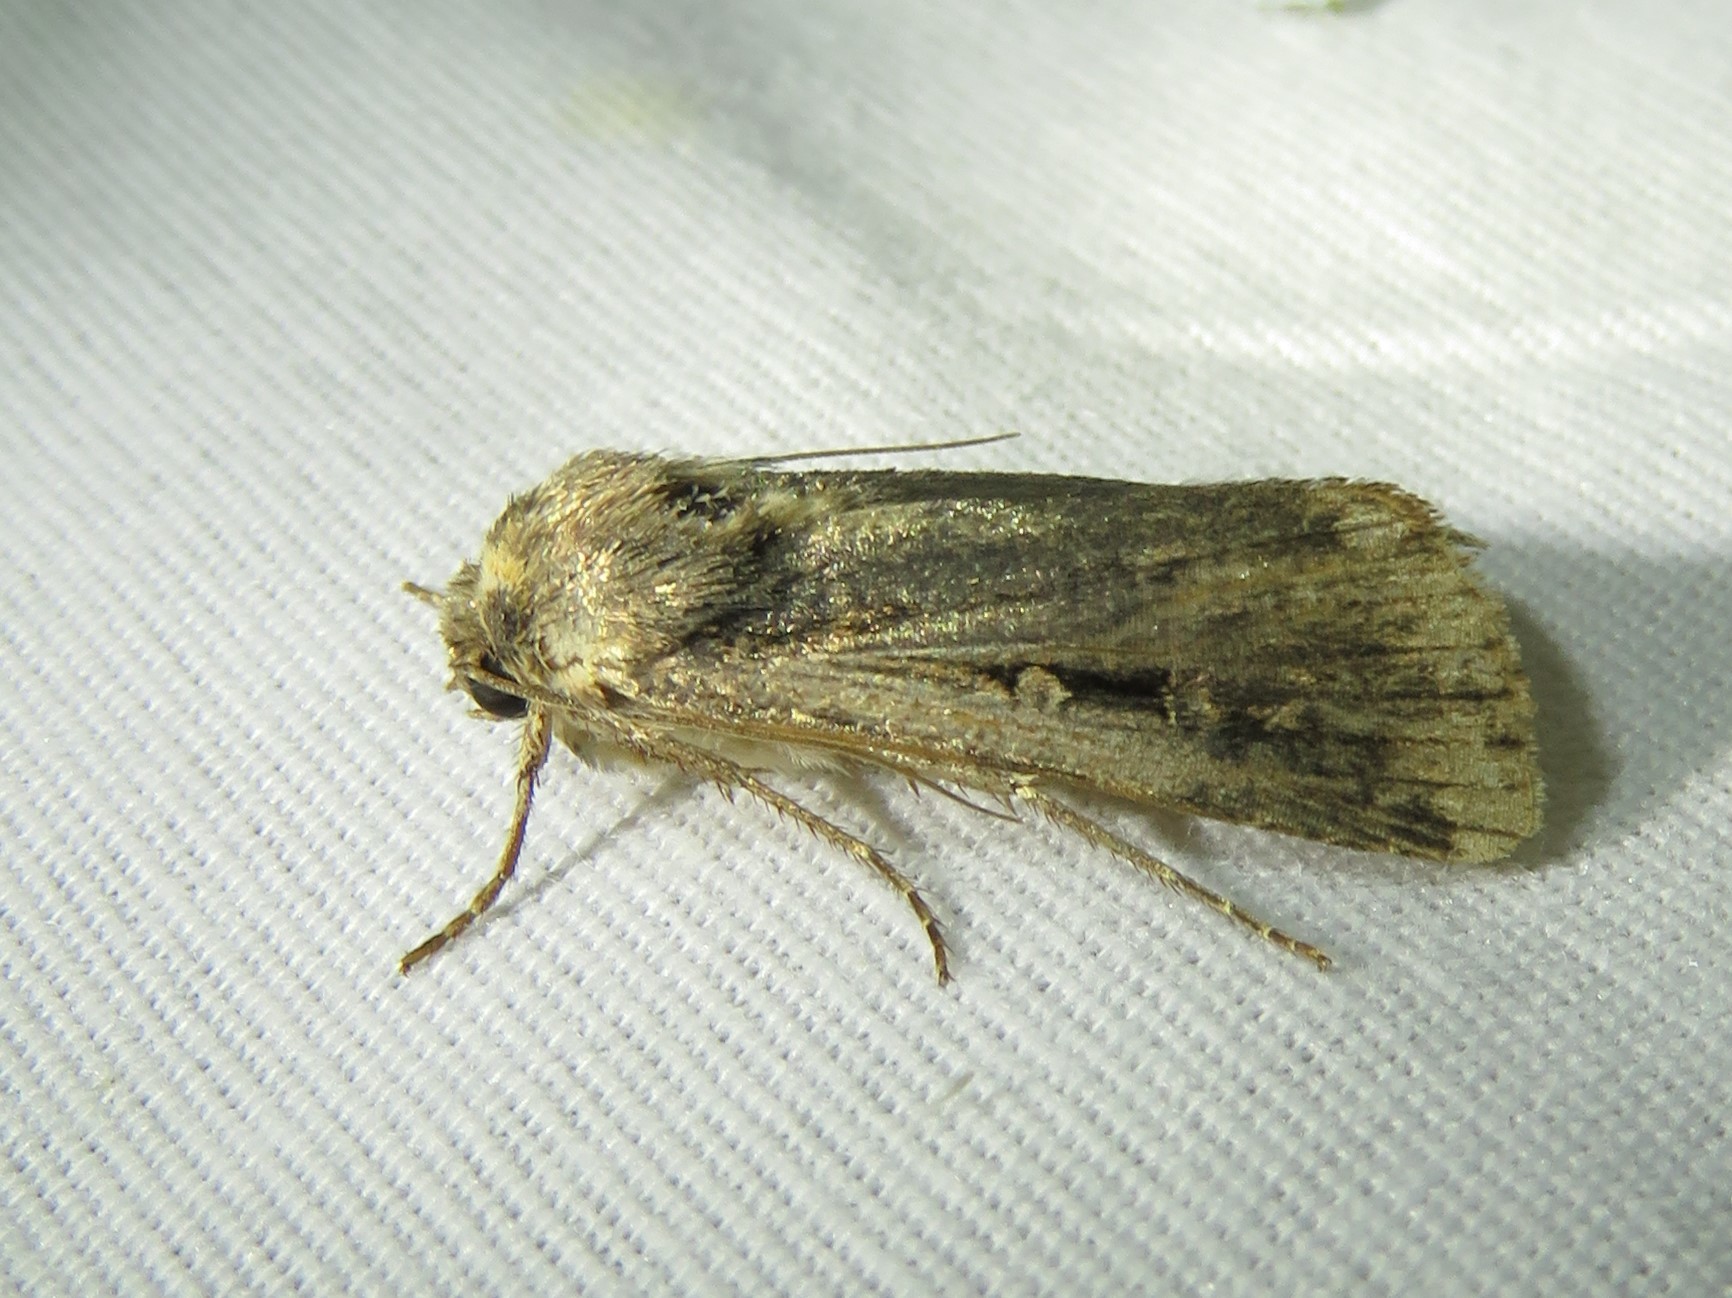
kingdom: Animalia
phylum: Arthropoda
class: Insecta
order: Lepidoptera
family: Noctuidae
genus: Feltia
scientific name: Feltia subterranea
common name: Granulate cutworm
